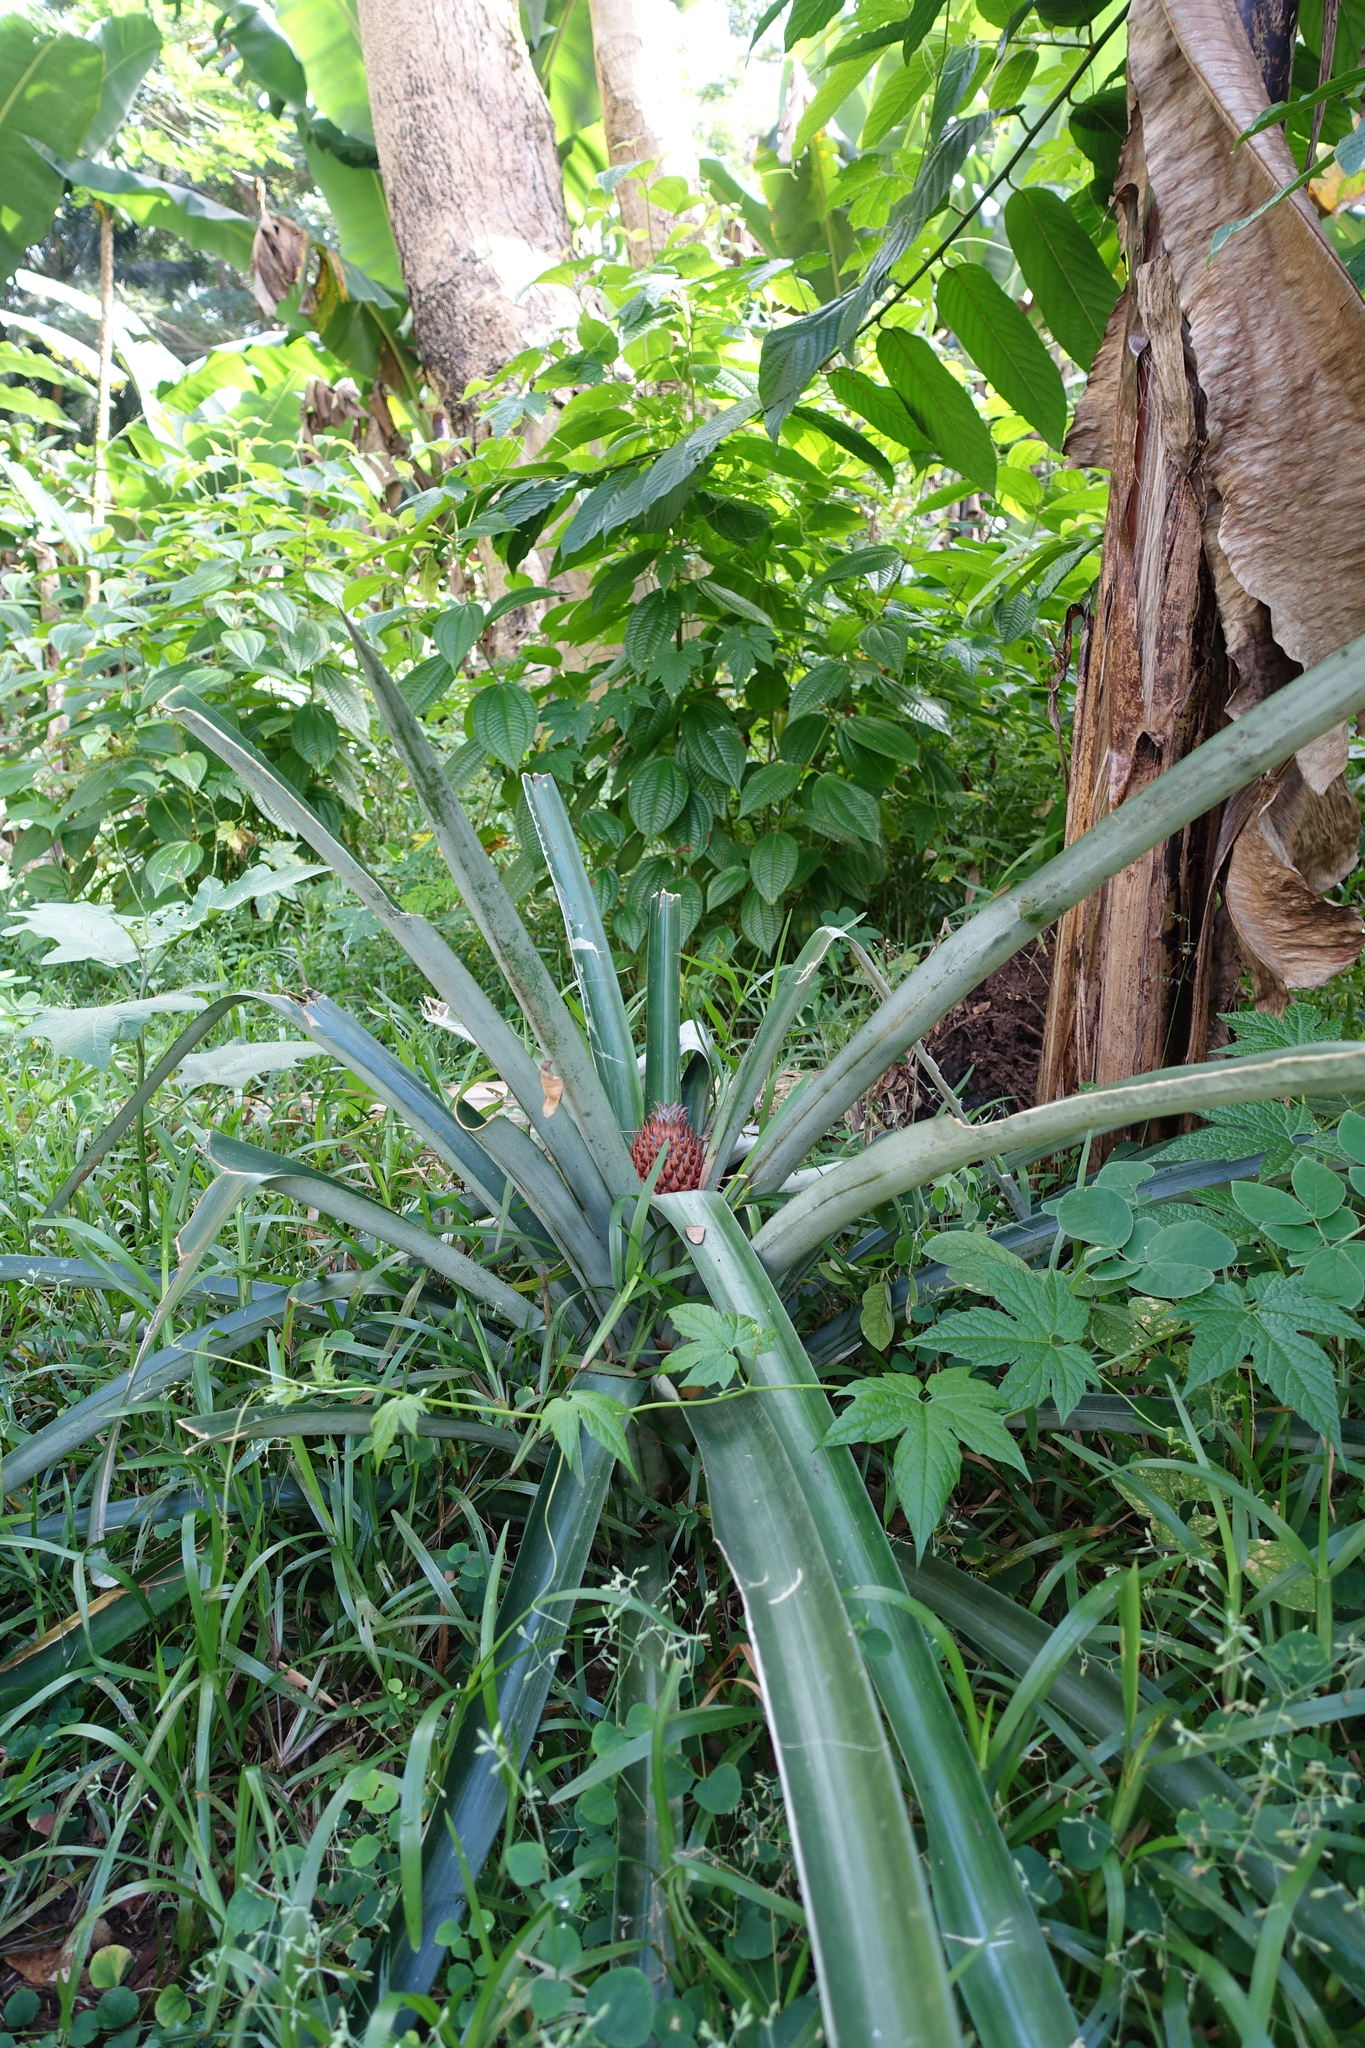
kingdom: Plantae
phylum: Tracheophyta
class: Liliopsida
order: Poales
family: Bromeliaceae
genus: Ananas
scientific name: Ananas comosus
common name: Pineapple
